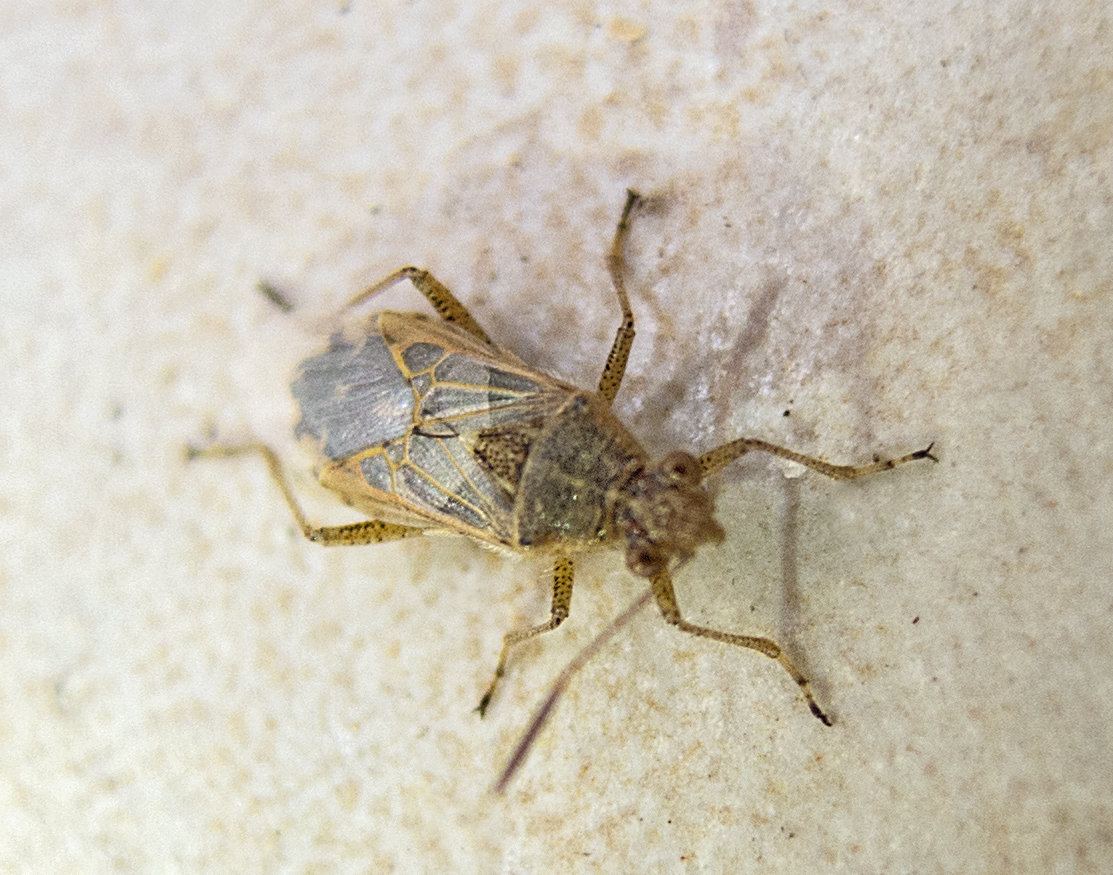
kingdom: Animalia
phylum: Arthropoda
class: Insecta
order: Hemiptera
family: Rhopalidae
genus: Liorhyssus
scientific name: Liorhyssus hyalinus
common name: Scentless plant bug
